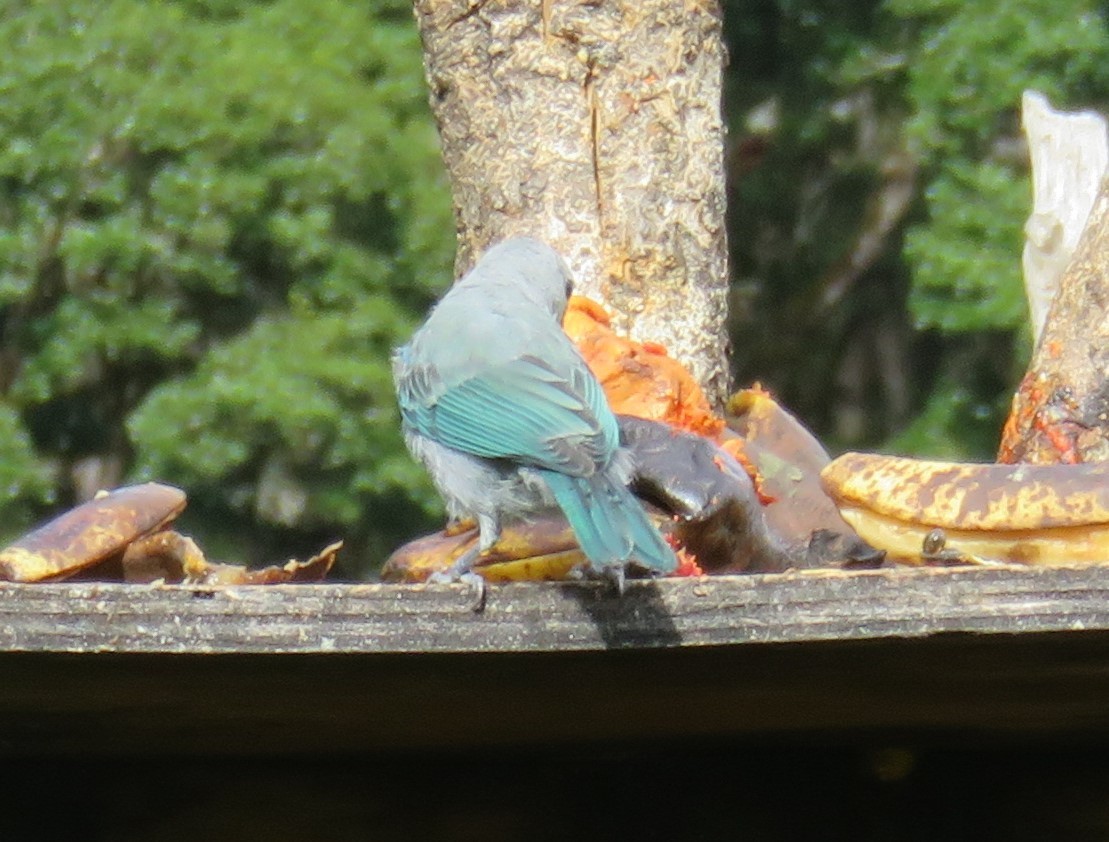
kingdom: Animalia
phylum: Chordata
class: Aves
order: Passeriformes
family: Thraupidae
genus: Thraupis
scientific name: Thraupis episcopus
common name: Blue-grey tanager
